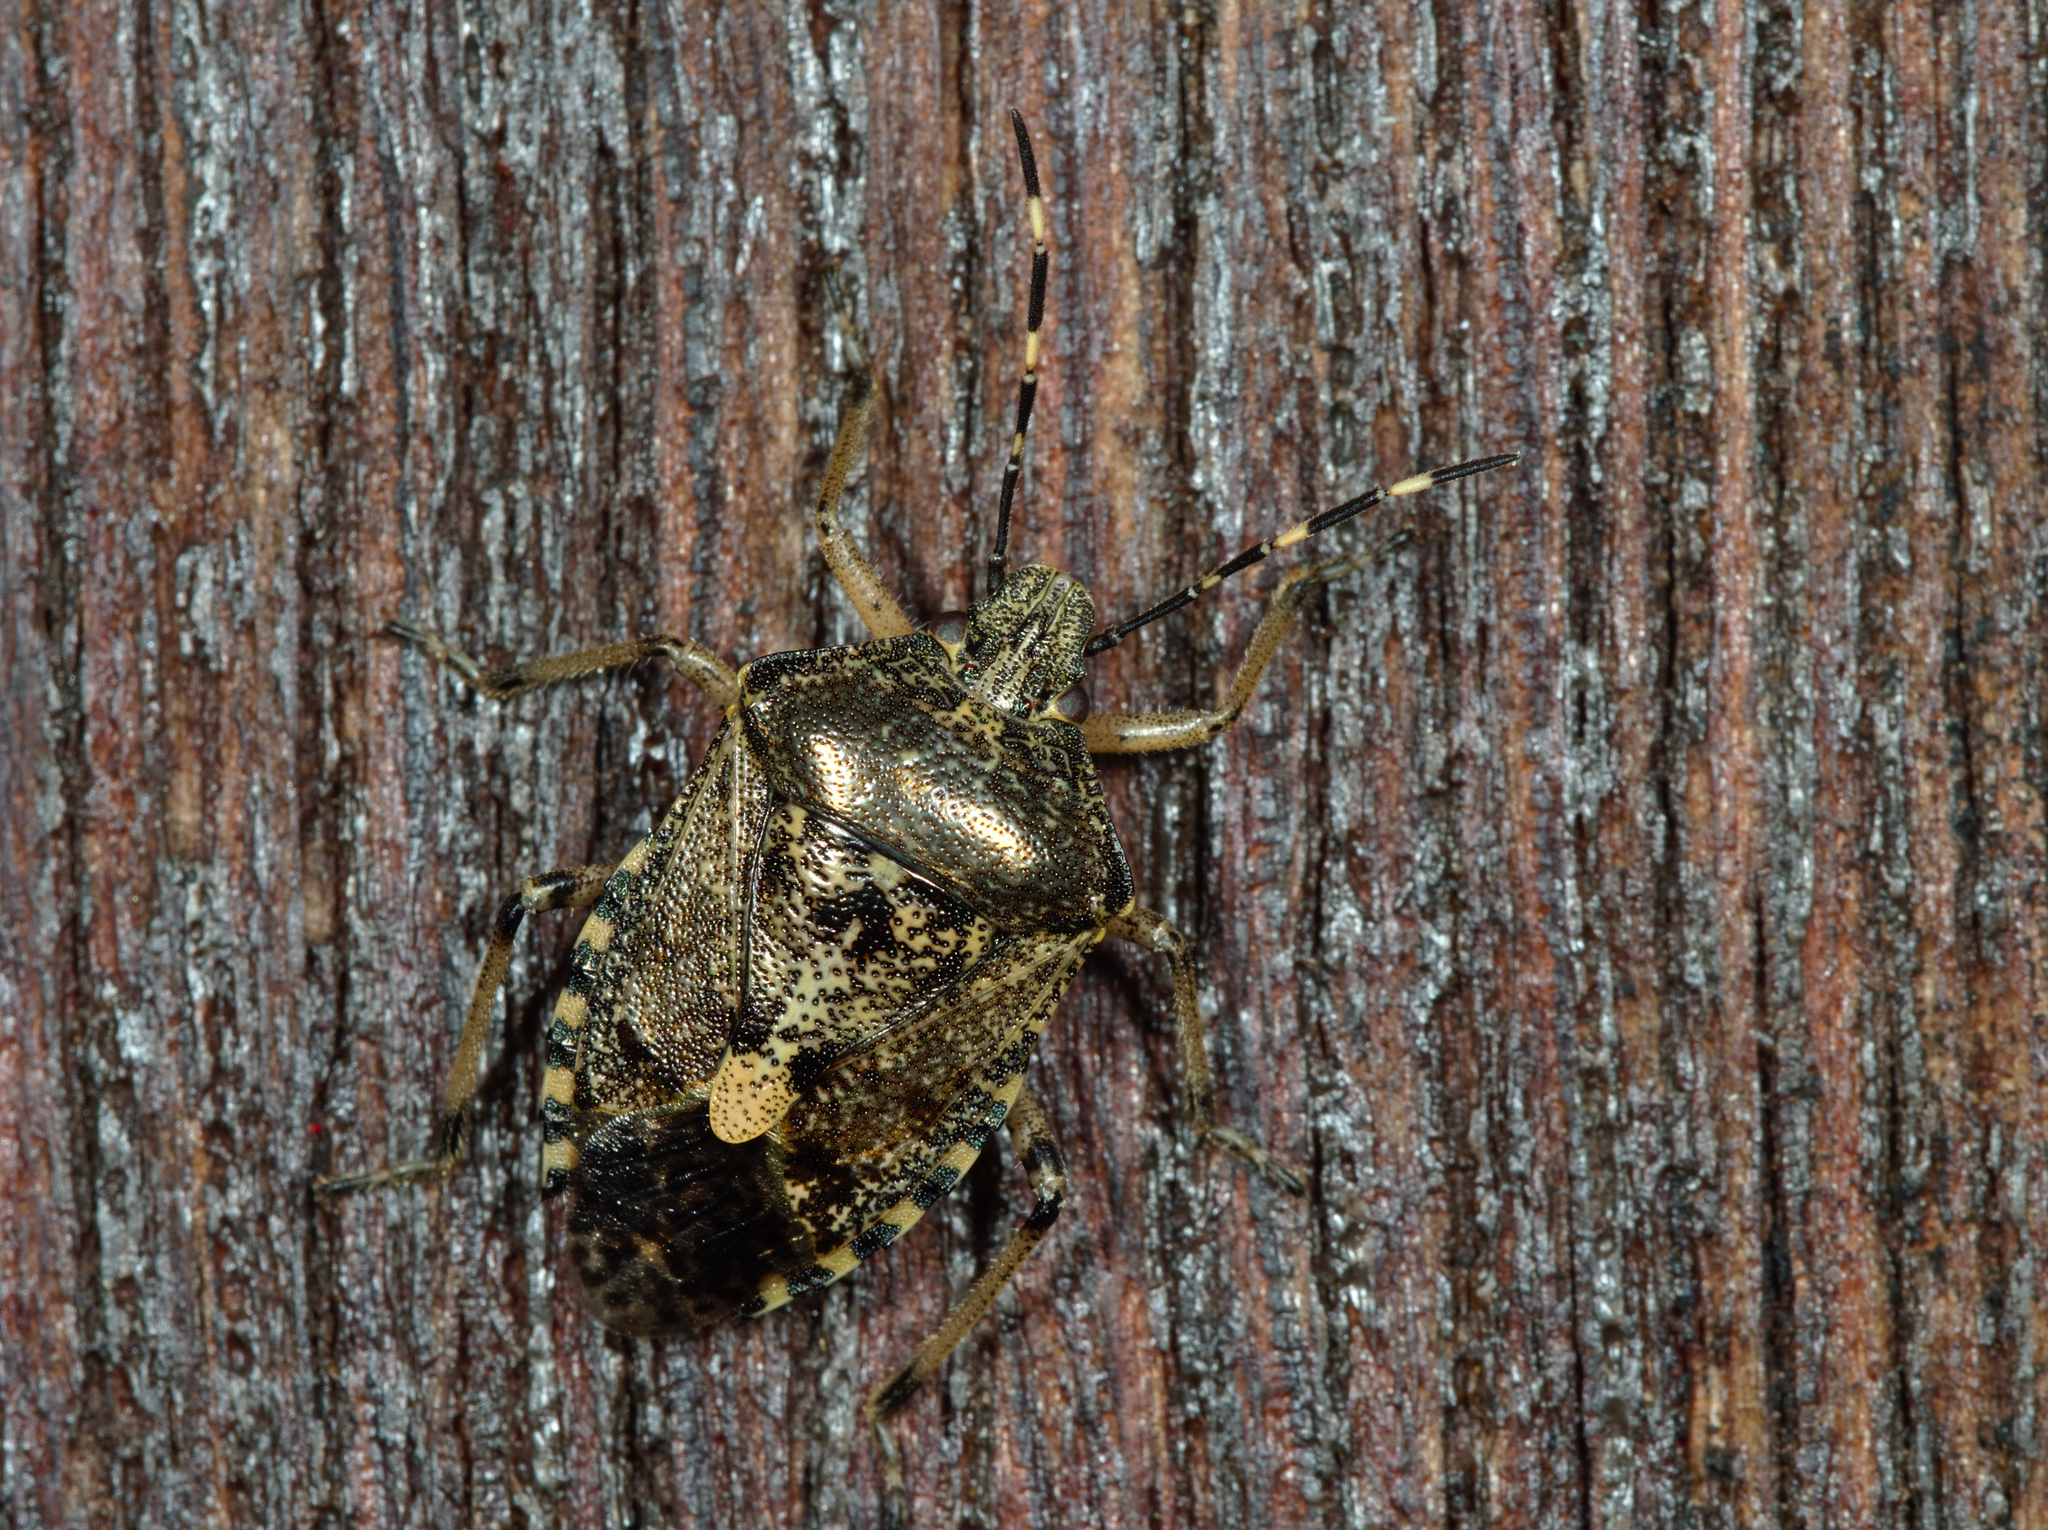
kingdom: Animalia
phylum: Arthropoda
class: Insecta
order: Hemiptera
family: Pentatomidae
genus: Rhaphigaster
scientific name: Rhaphigaster nebulosa
